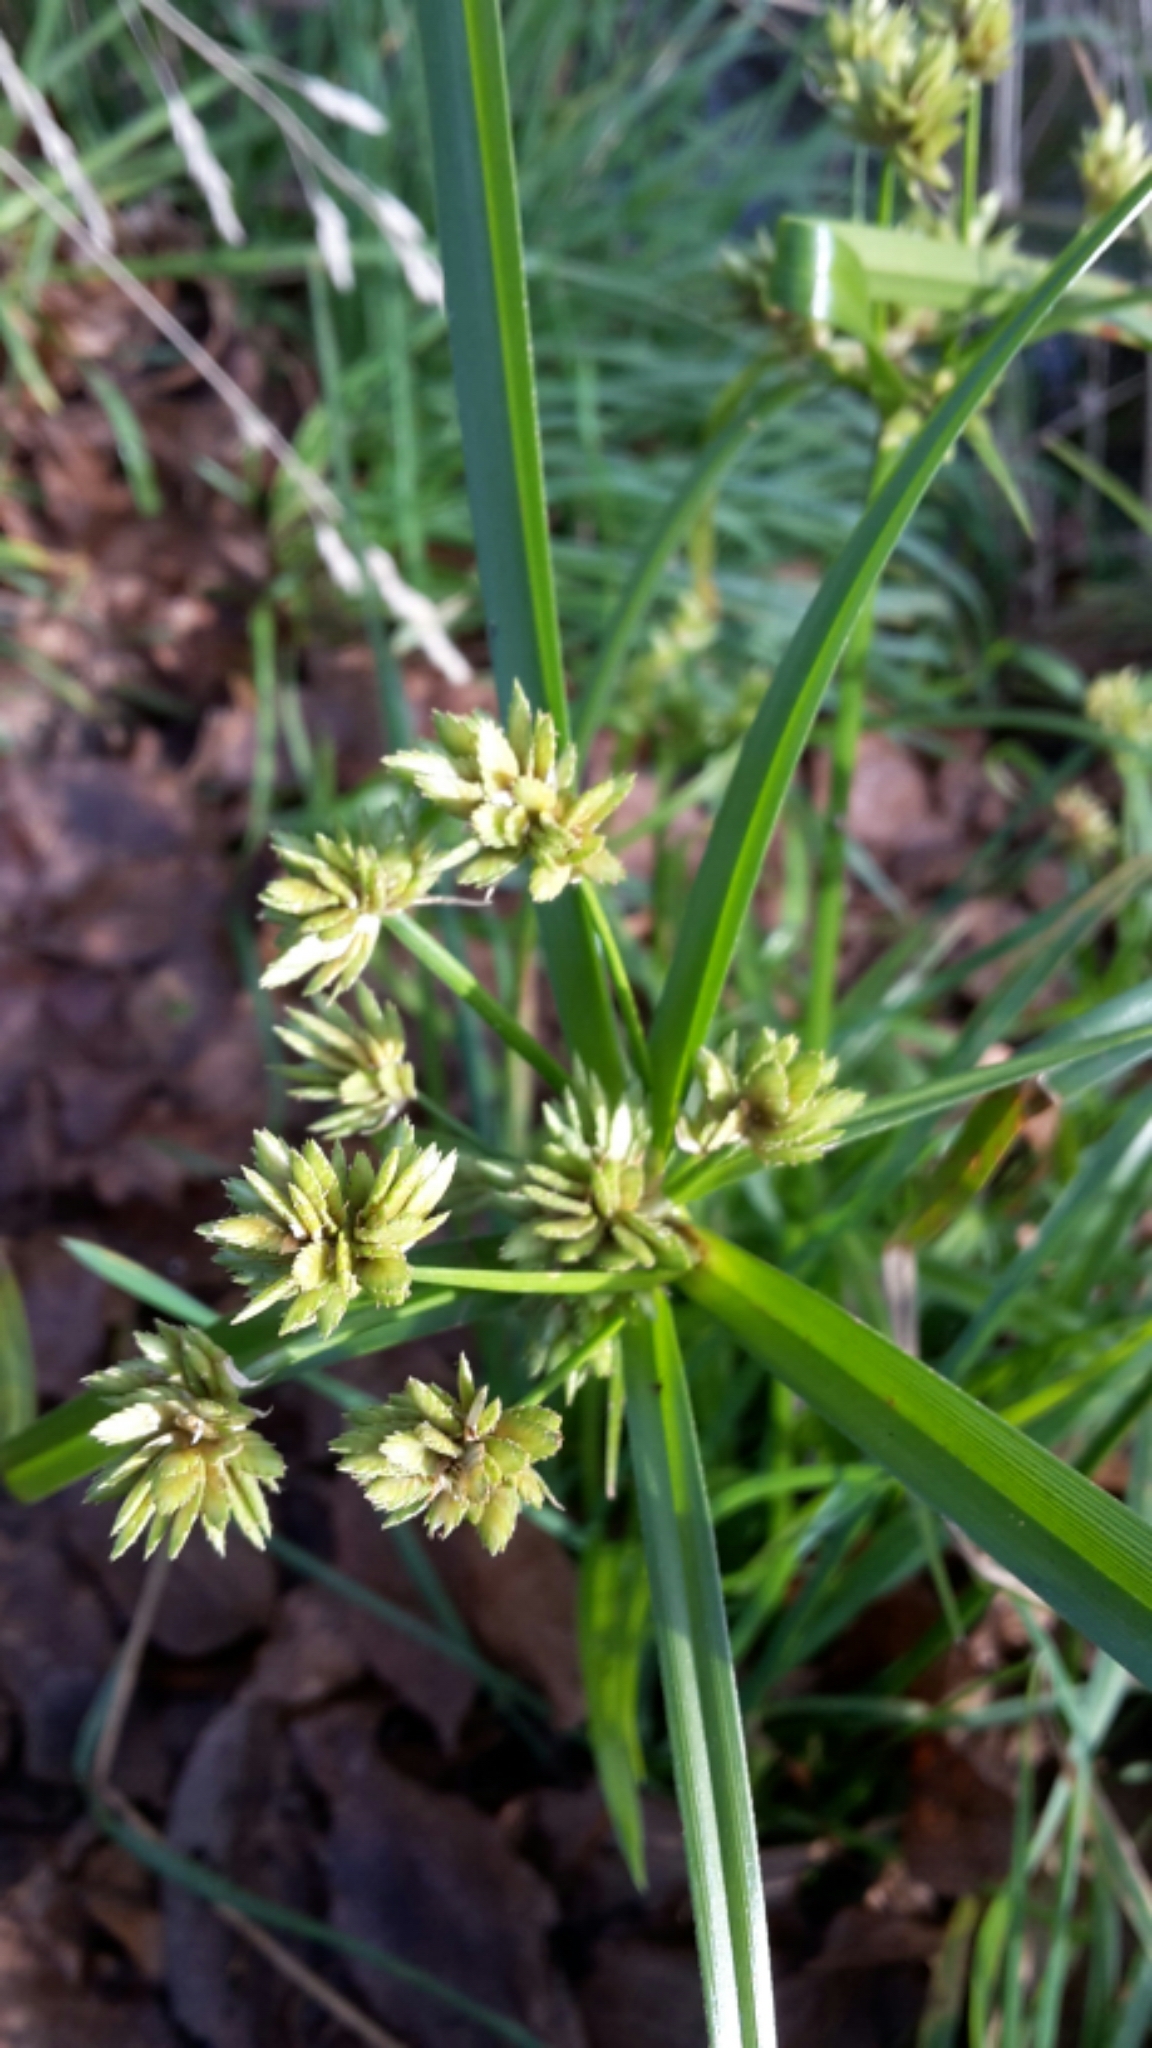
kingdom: Plantae
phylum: Tracheophyta
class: Liliopsida
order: Poales
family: Cyperaceae
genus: Cyperus
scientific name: Cyperus eragrostis
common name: Tall flatsedge
